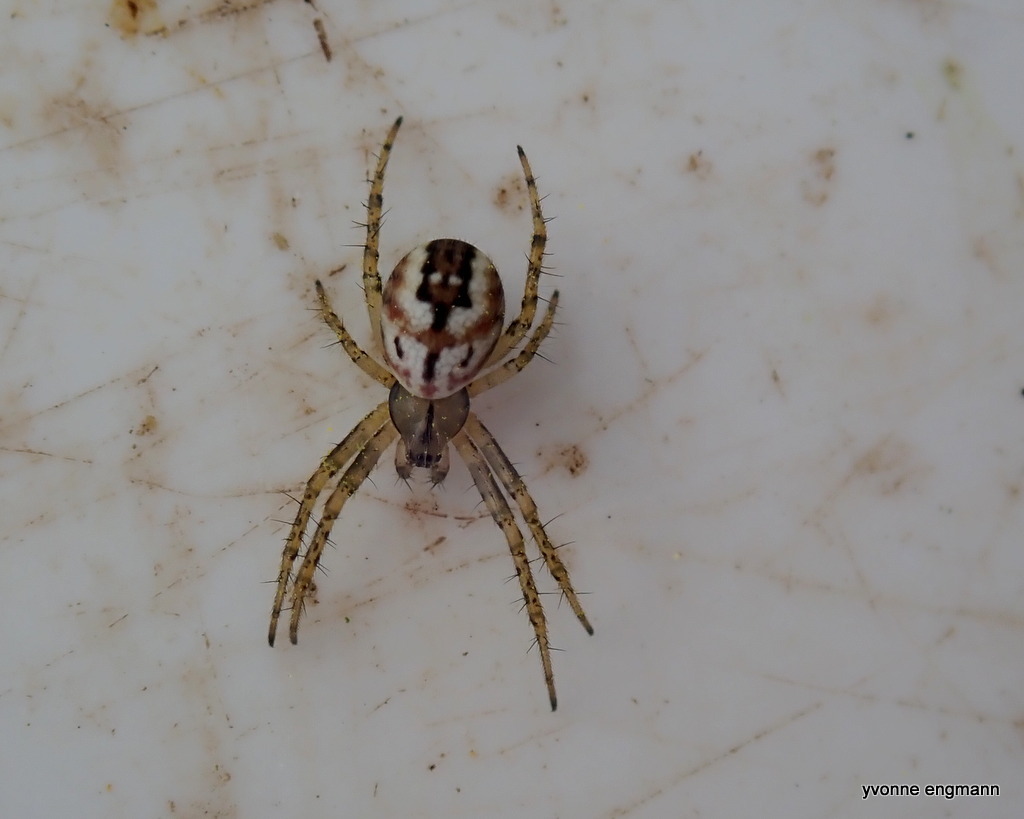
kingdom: Animalia
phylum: Arthropoda
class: Arachnida
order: Araneae
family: Araneidae
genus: Mangora
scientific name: Mangora acalypha
